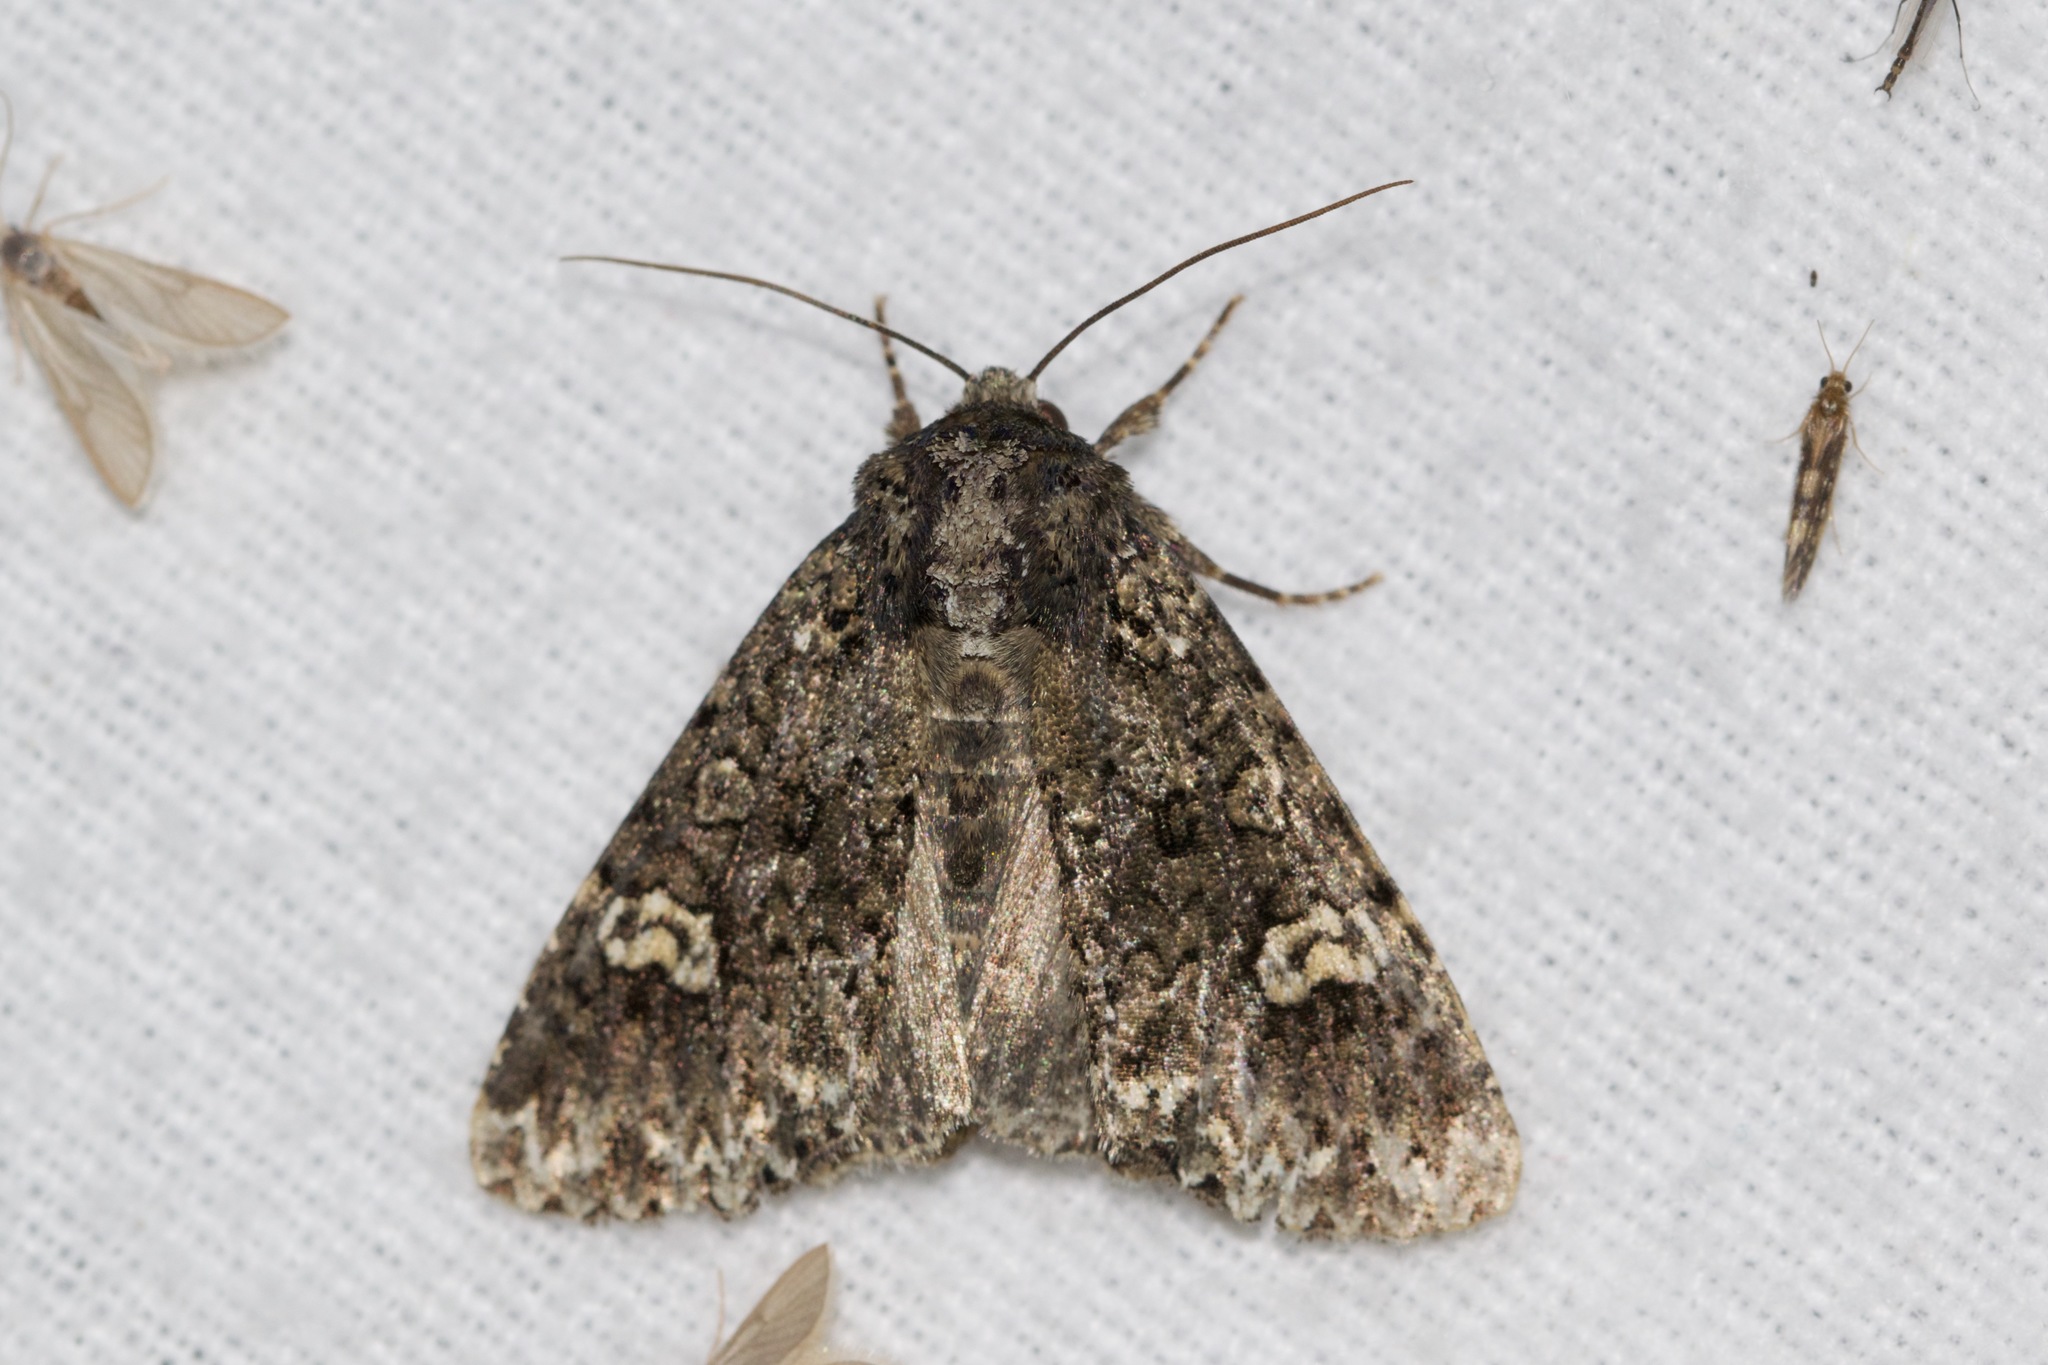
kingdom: Animalia
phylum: Arthropoda
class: Insecta
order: Lepidoptera
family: Noctuidae
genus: Melanchra
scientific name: Melanchra adjuncta
